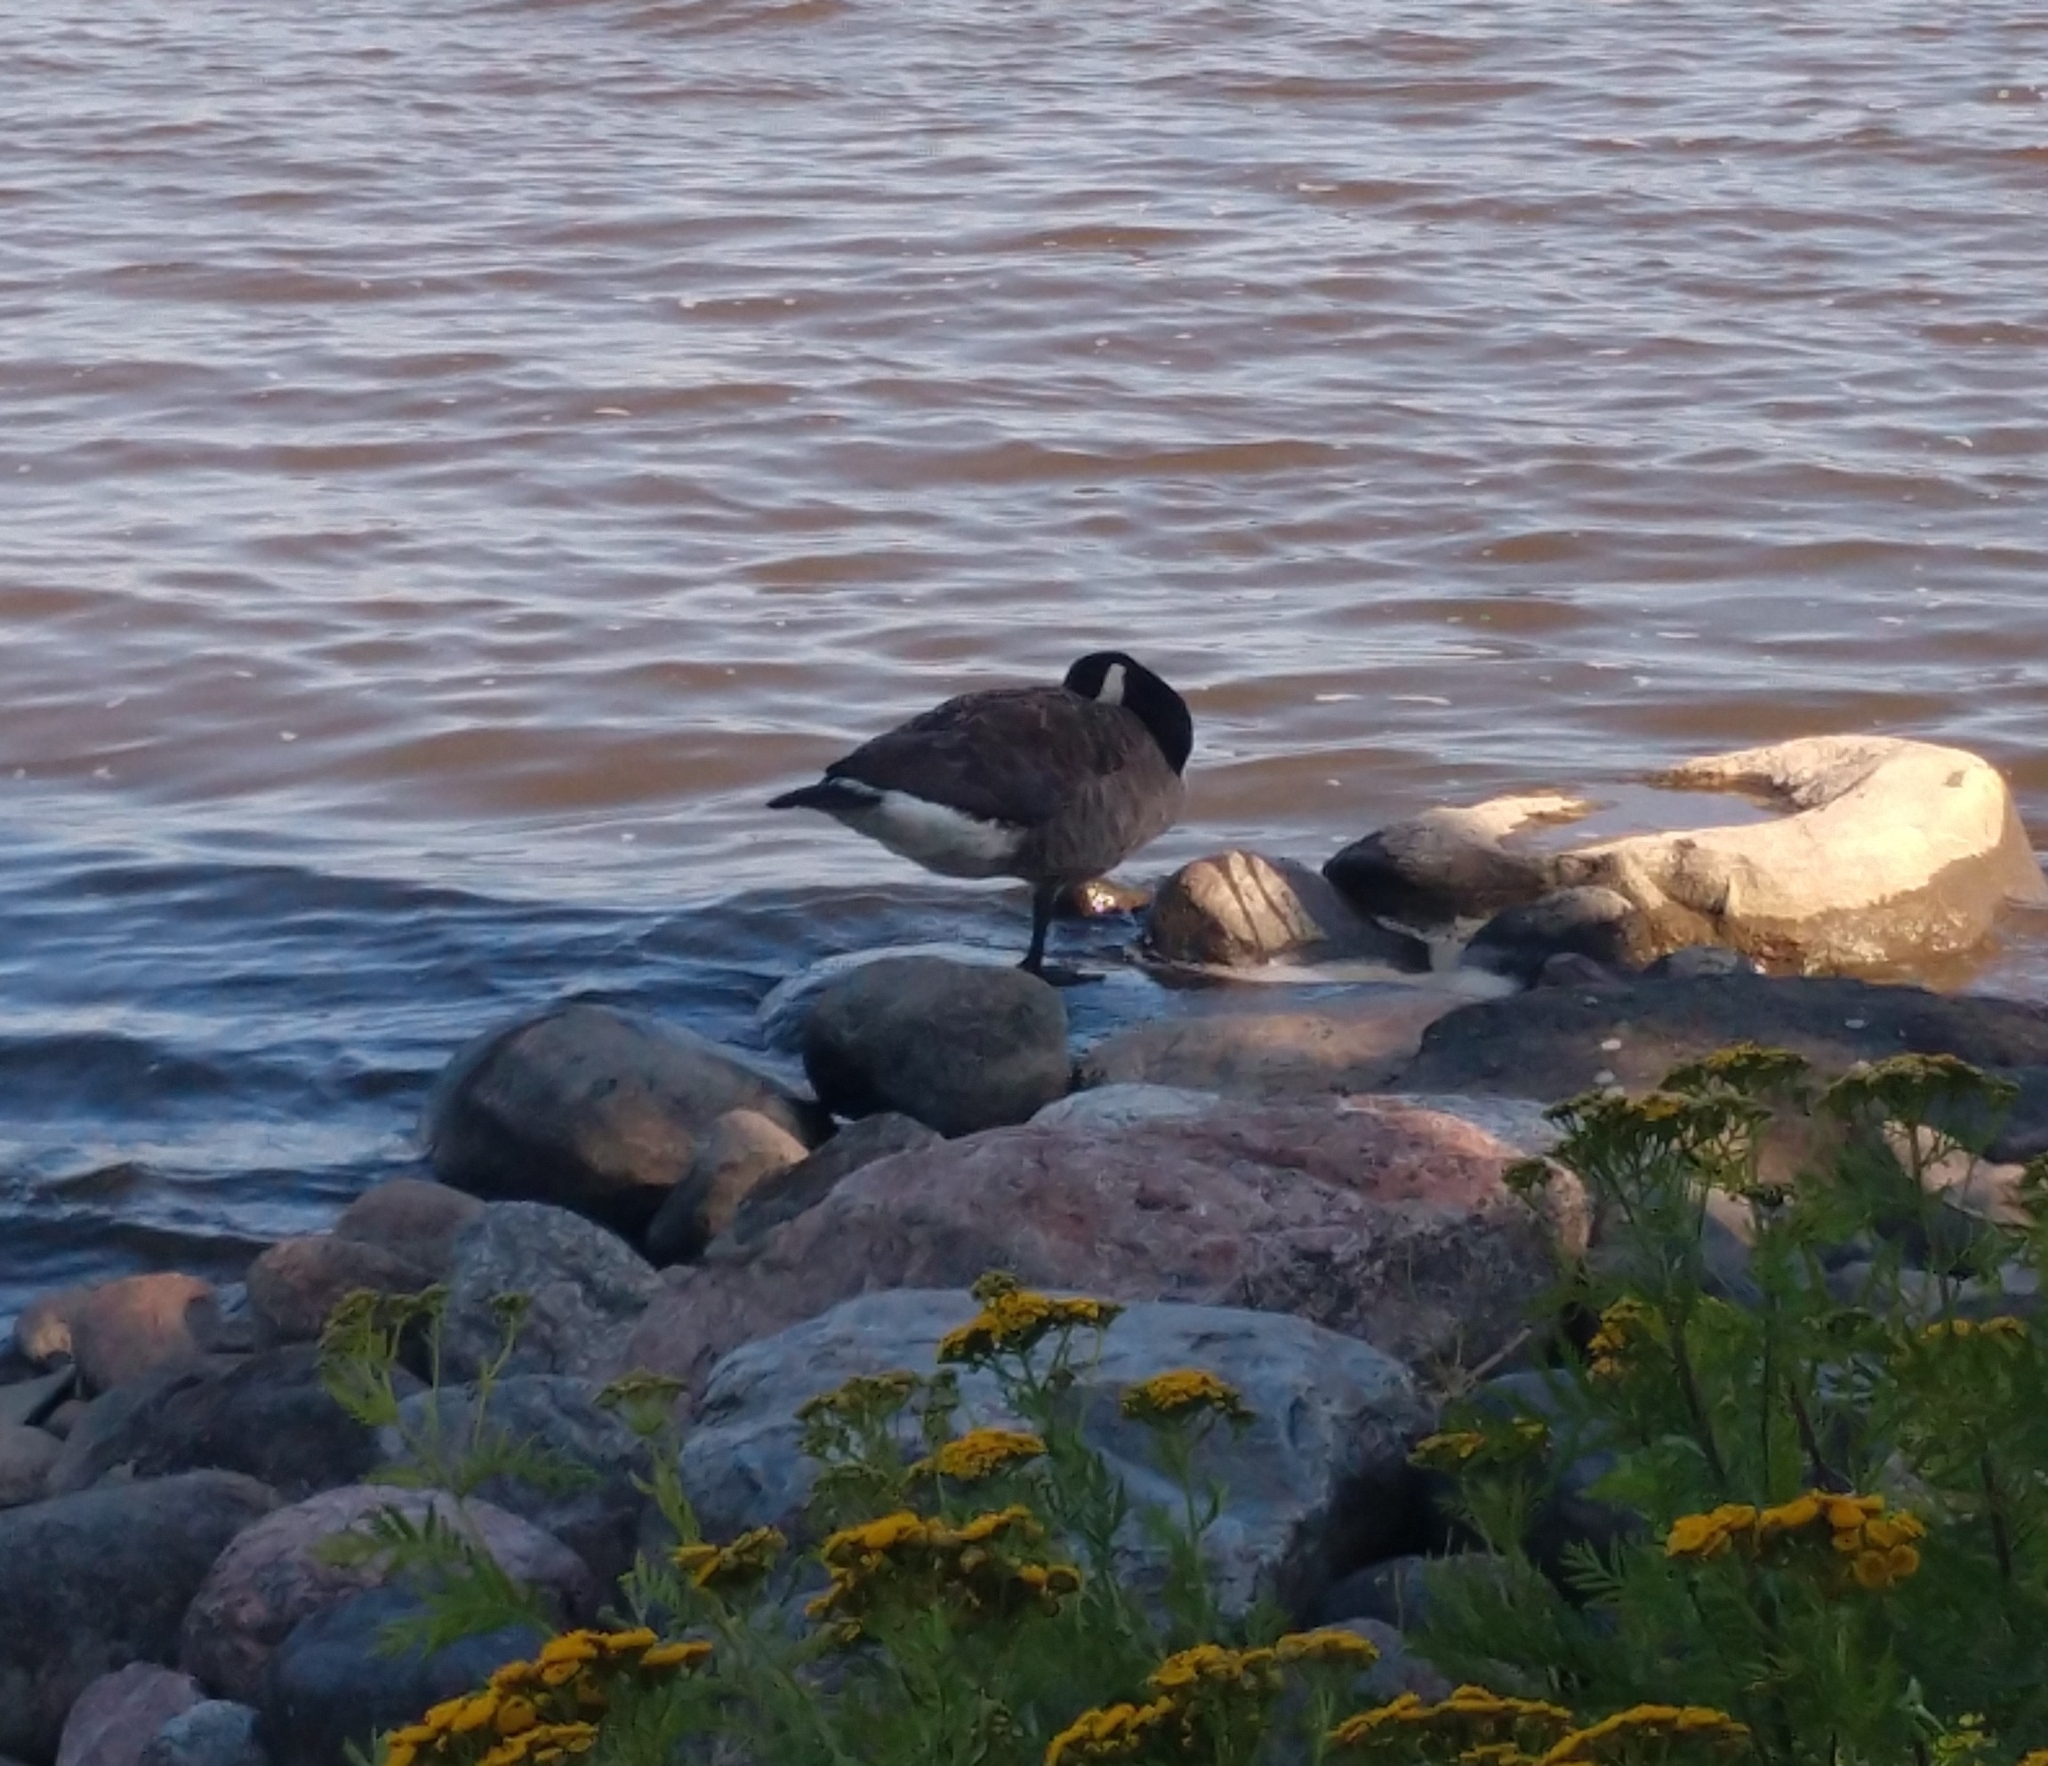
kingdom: Animalia
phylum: Chordata
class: Aves
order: Anseriformes
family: Anatidae
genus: Branta
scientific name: Branta canadensis
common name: Canada goose
